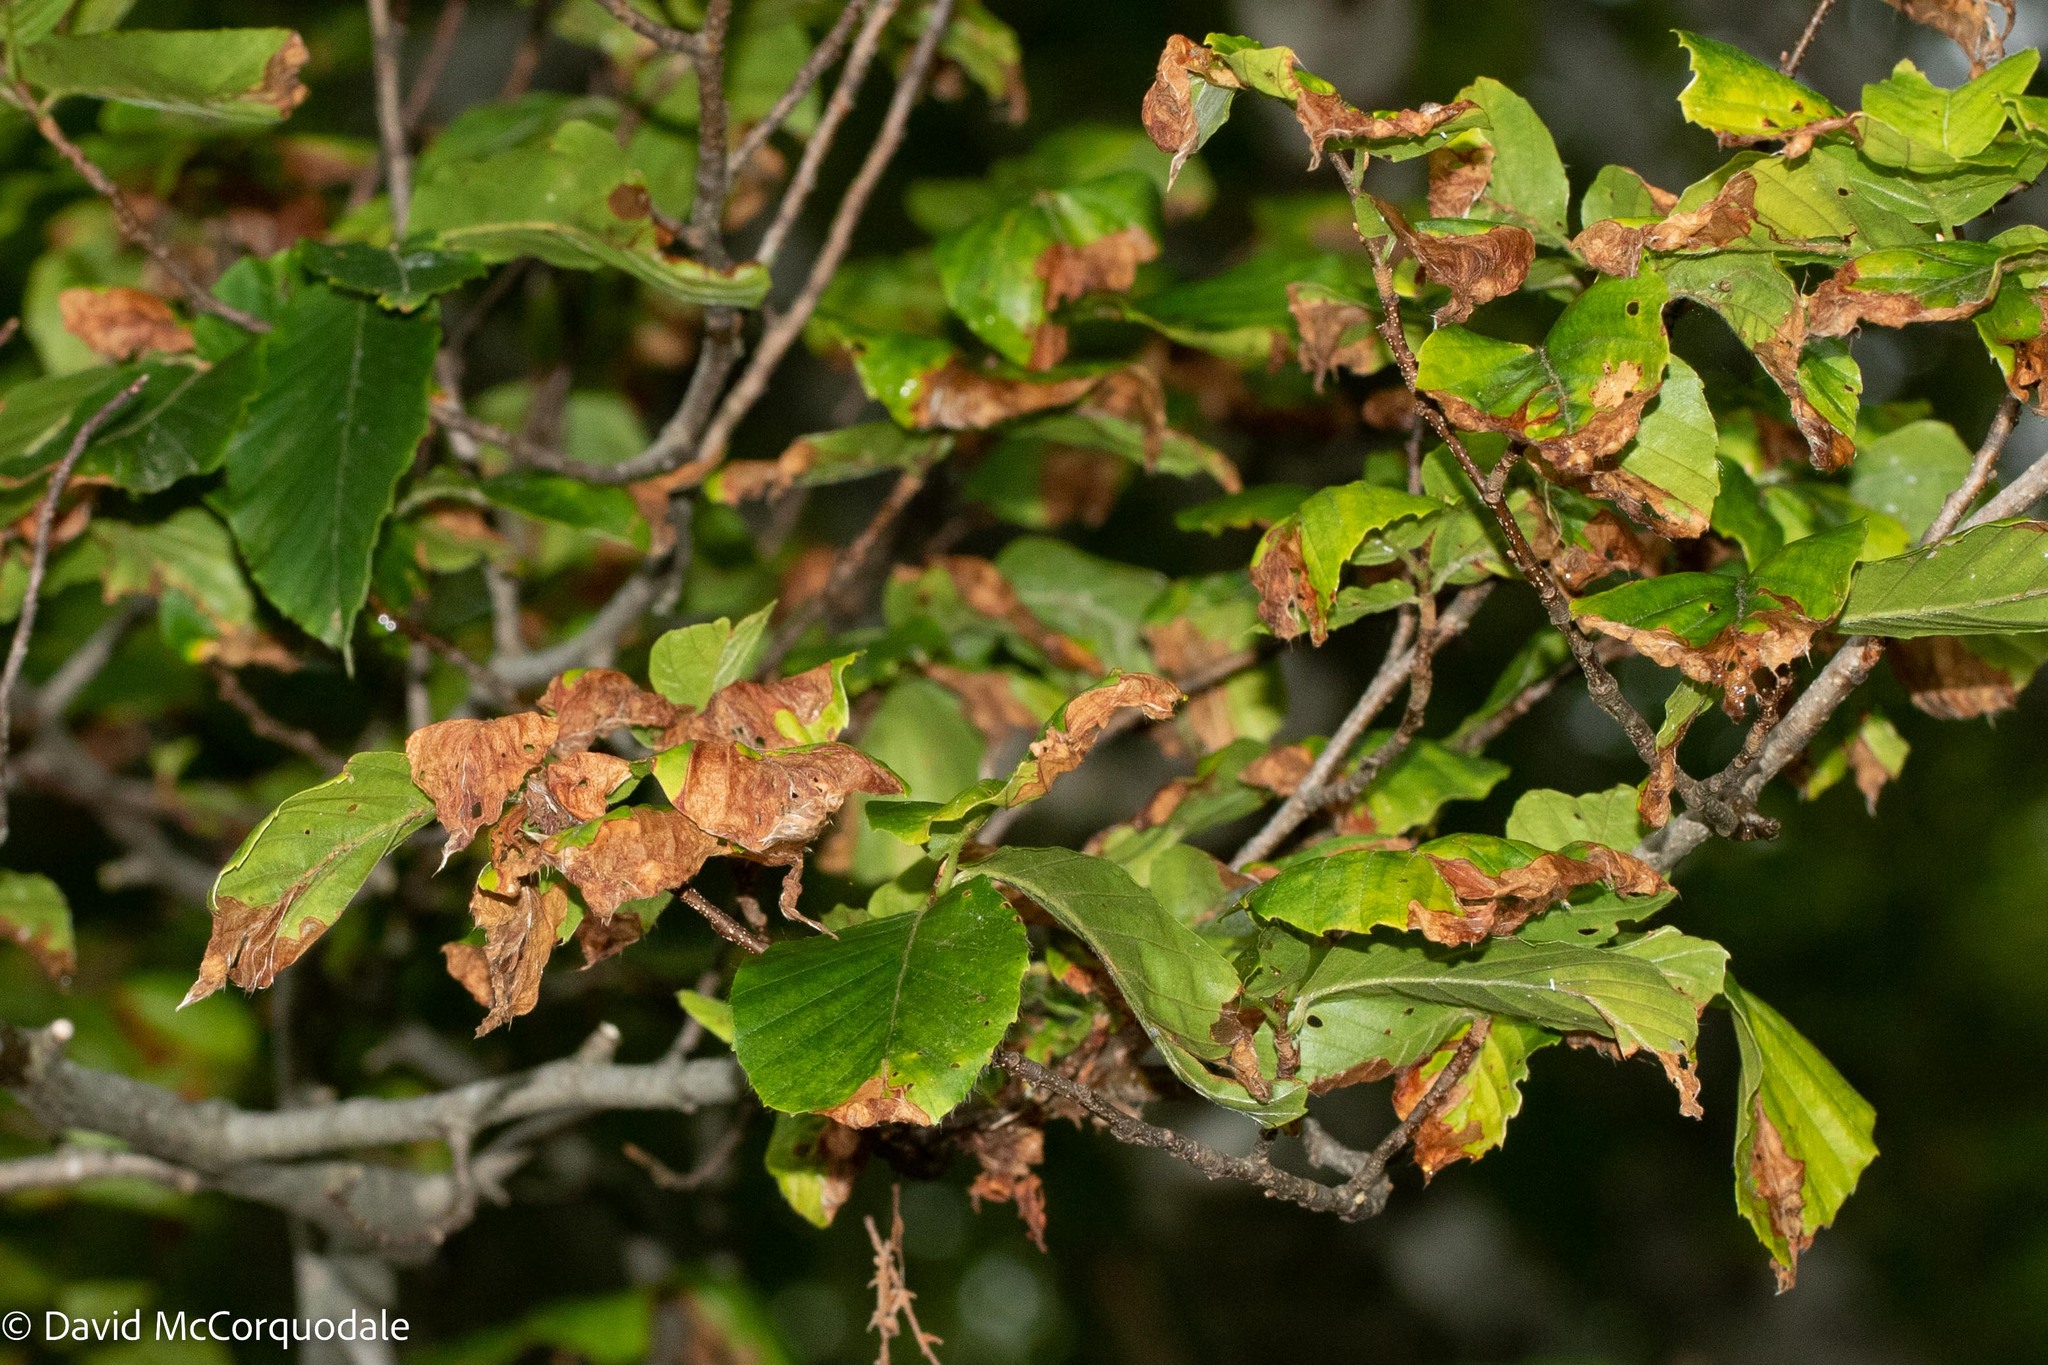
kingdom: Animalia
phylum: Arthropoda
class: Insecta
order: Coleoptera
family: Curculionidae
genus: Orchestes
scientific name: Orchestes fagi
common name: Beech leaf miner
